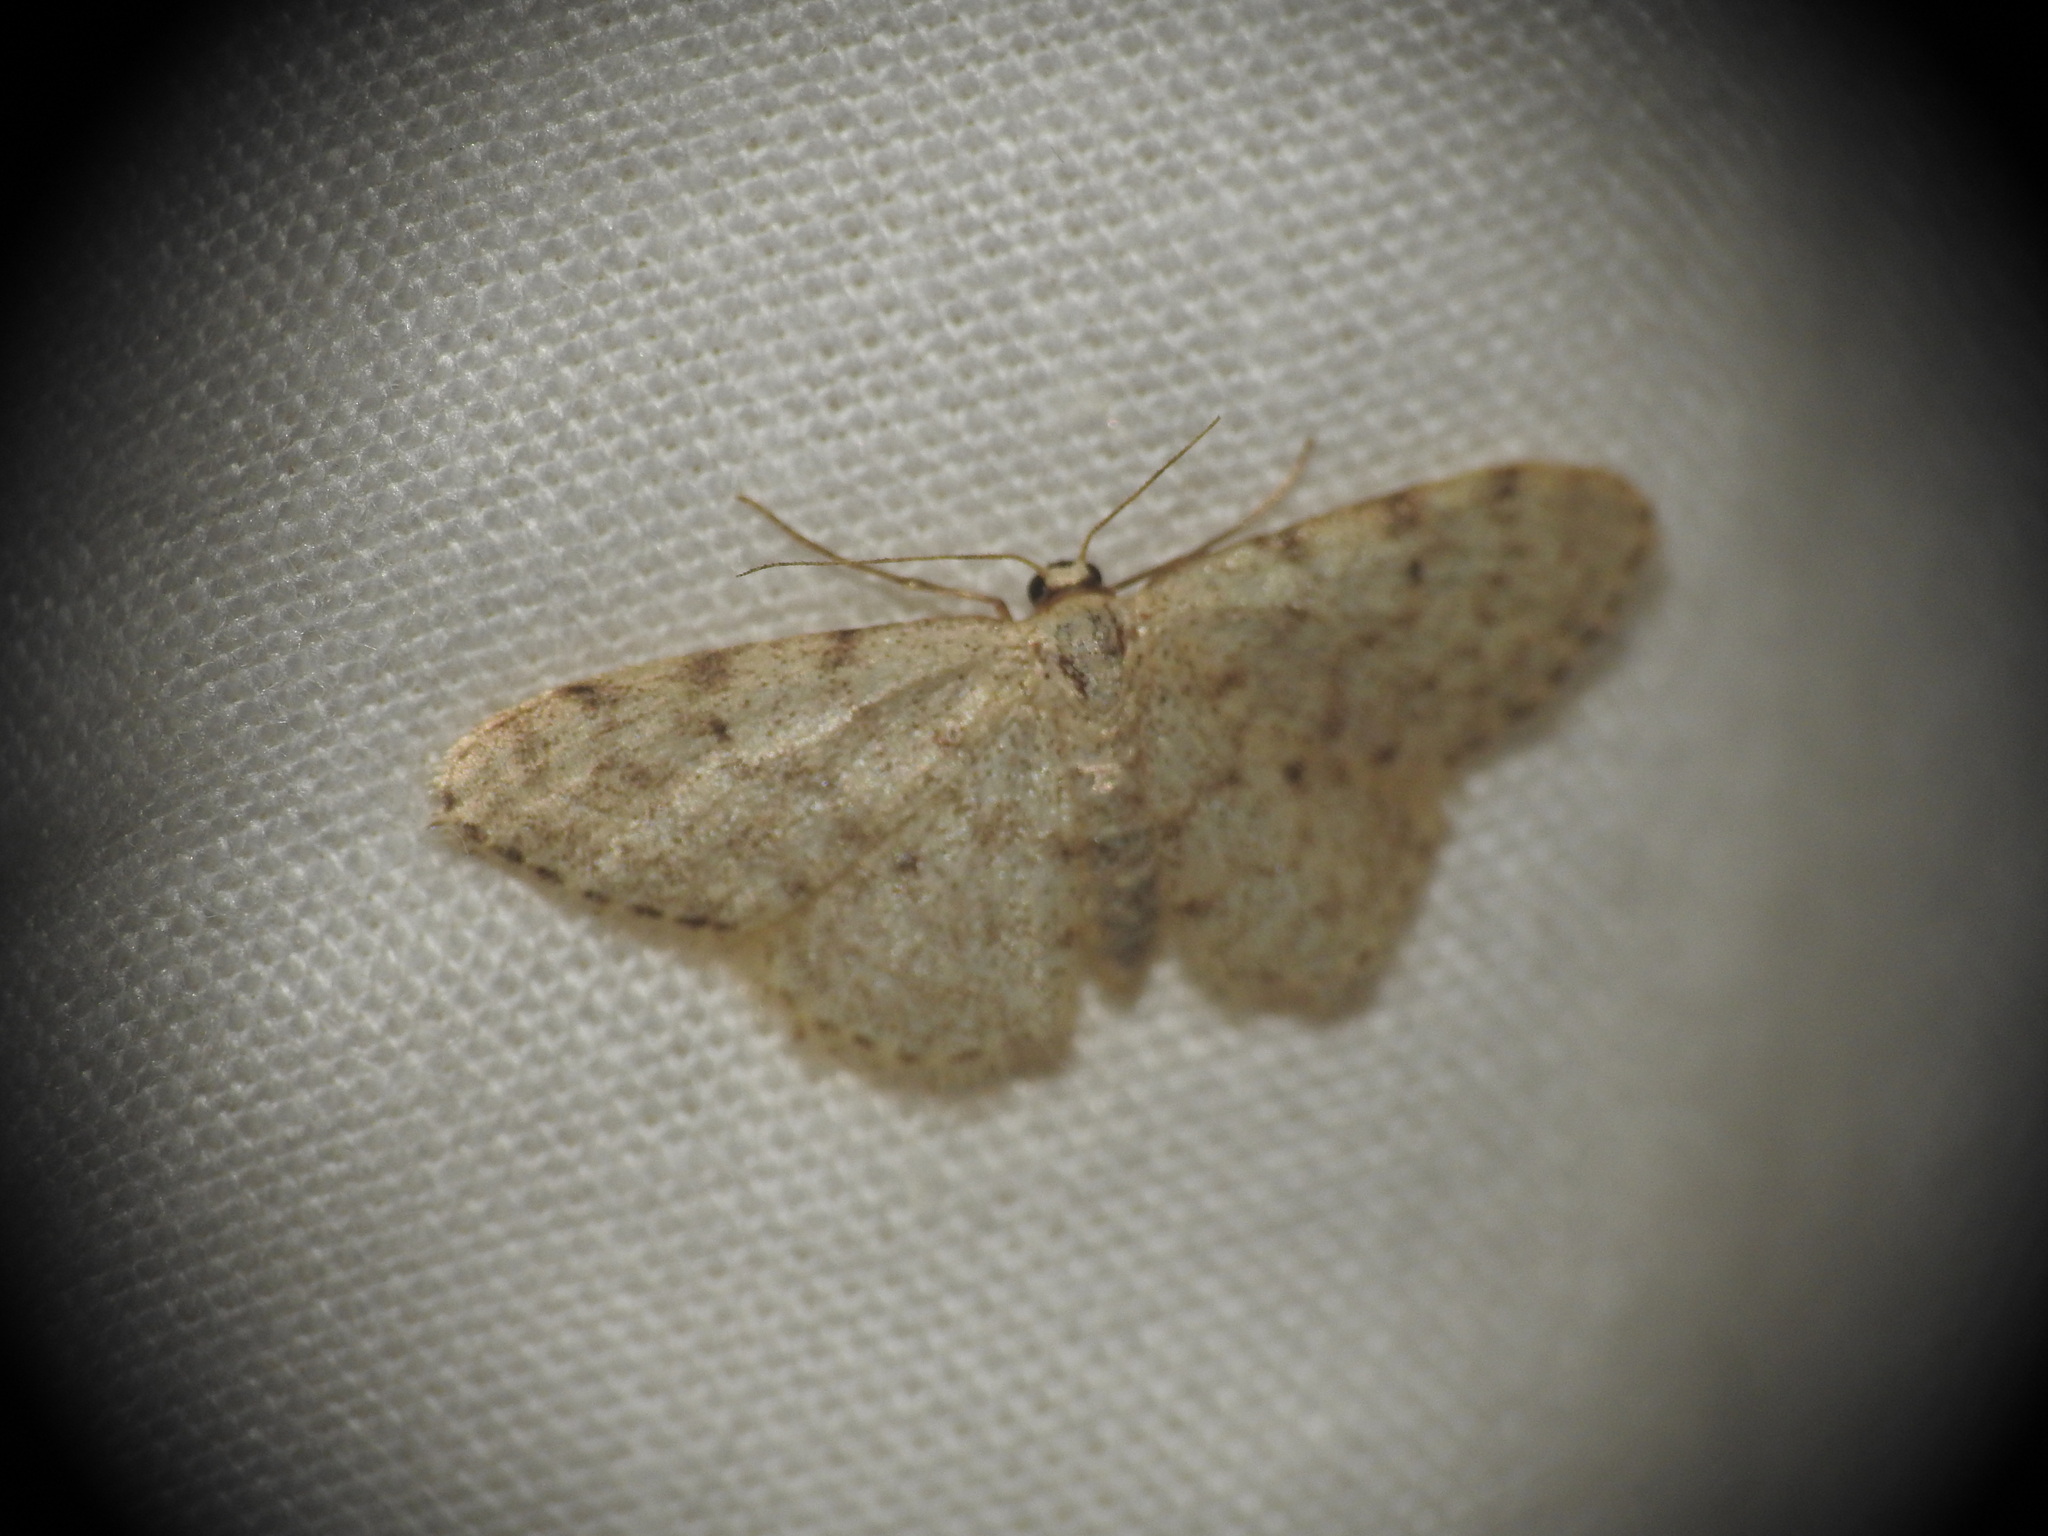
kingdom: Animalia
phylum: Arthropoda
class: Insecta
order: Lepidoptera
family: Geometridae
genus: Idaea
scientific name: Idaea cervantaria
